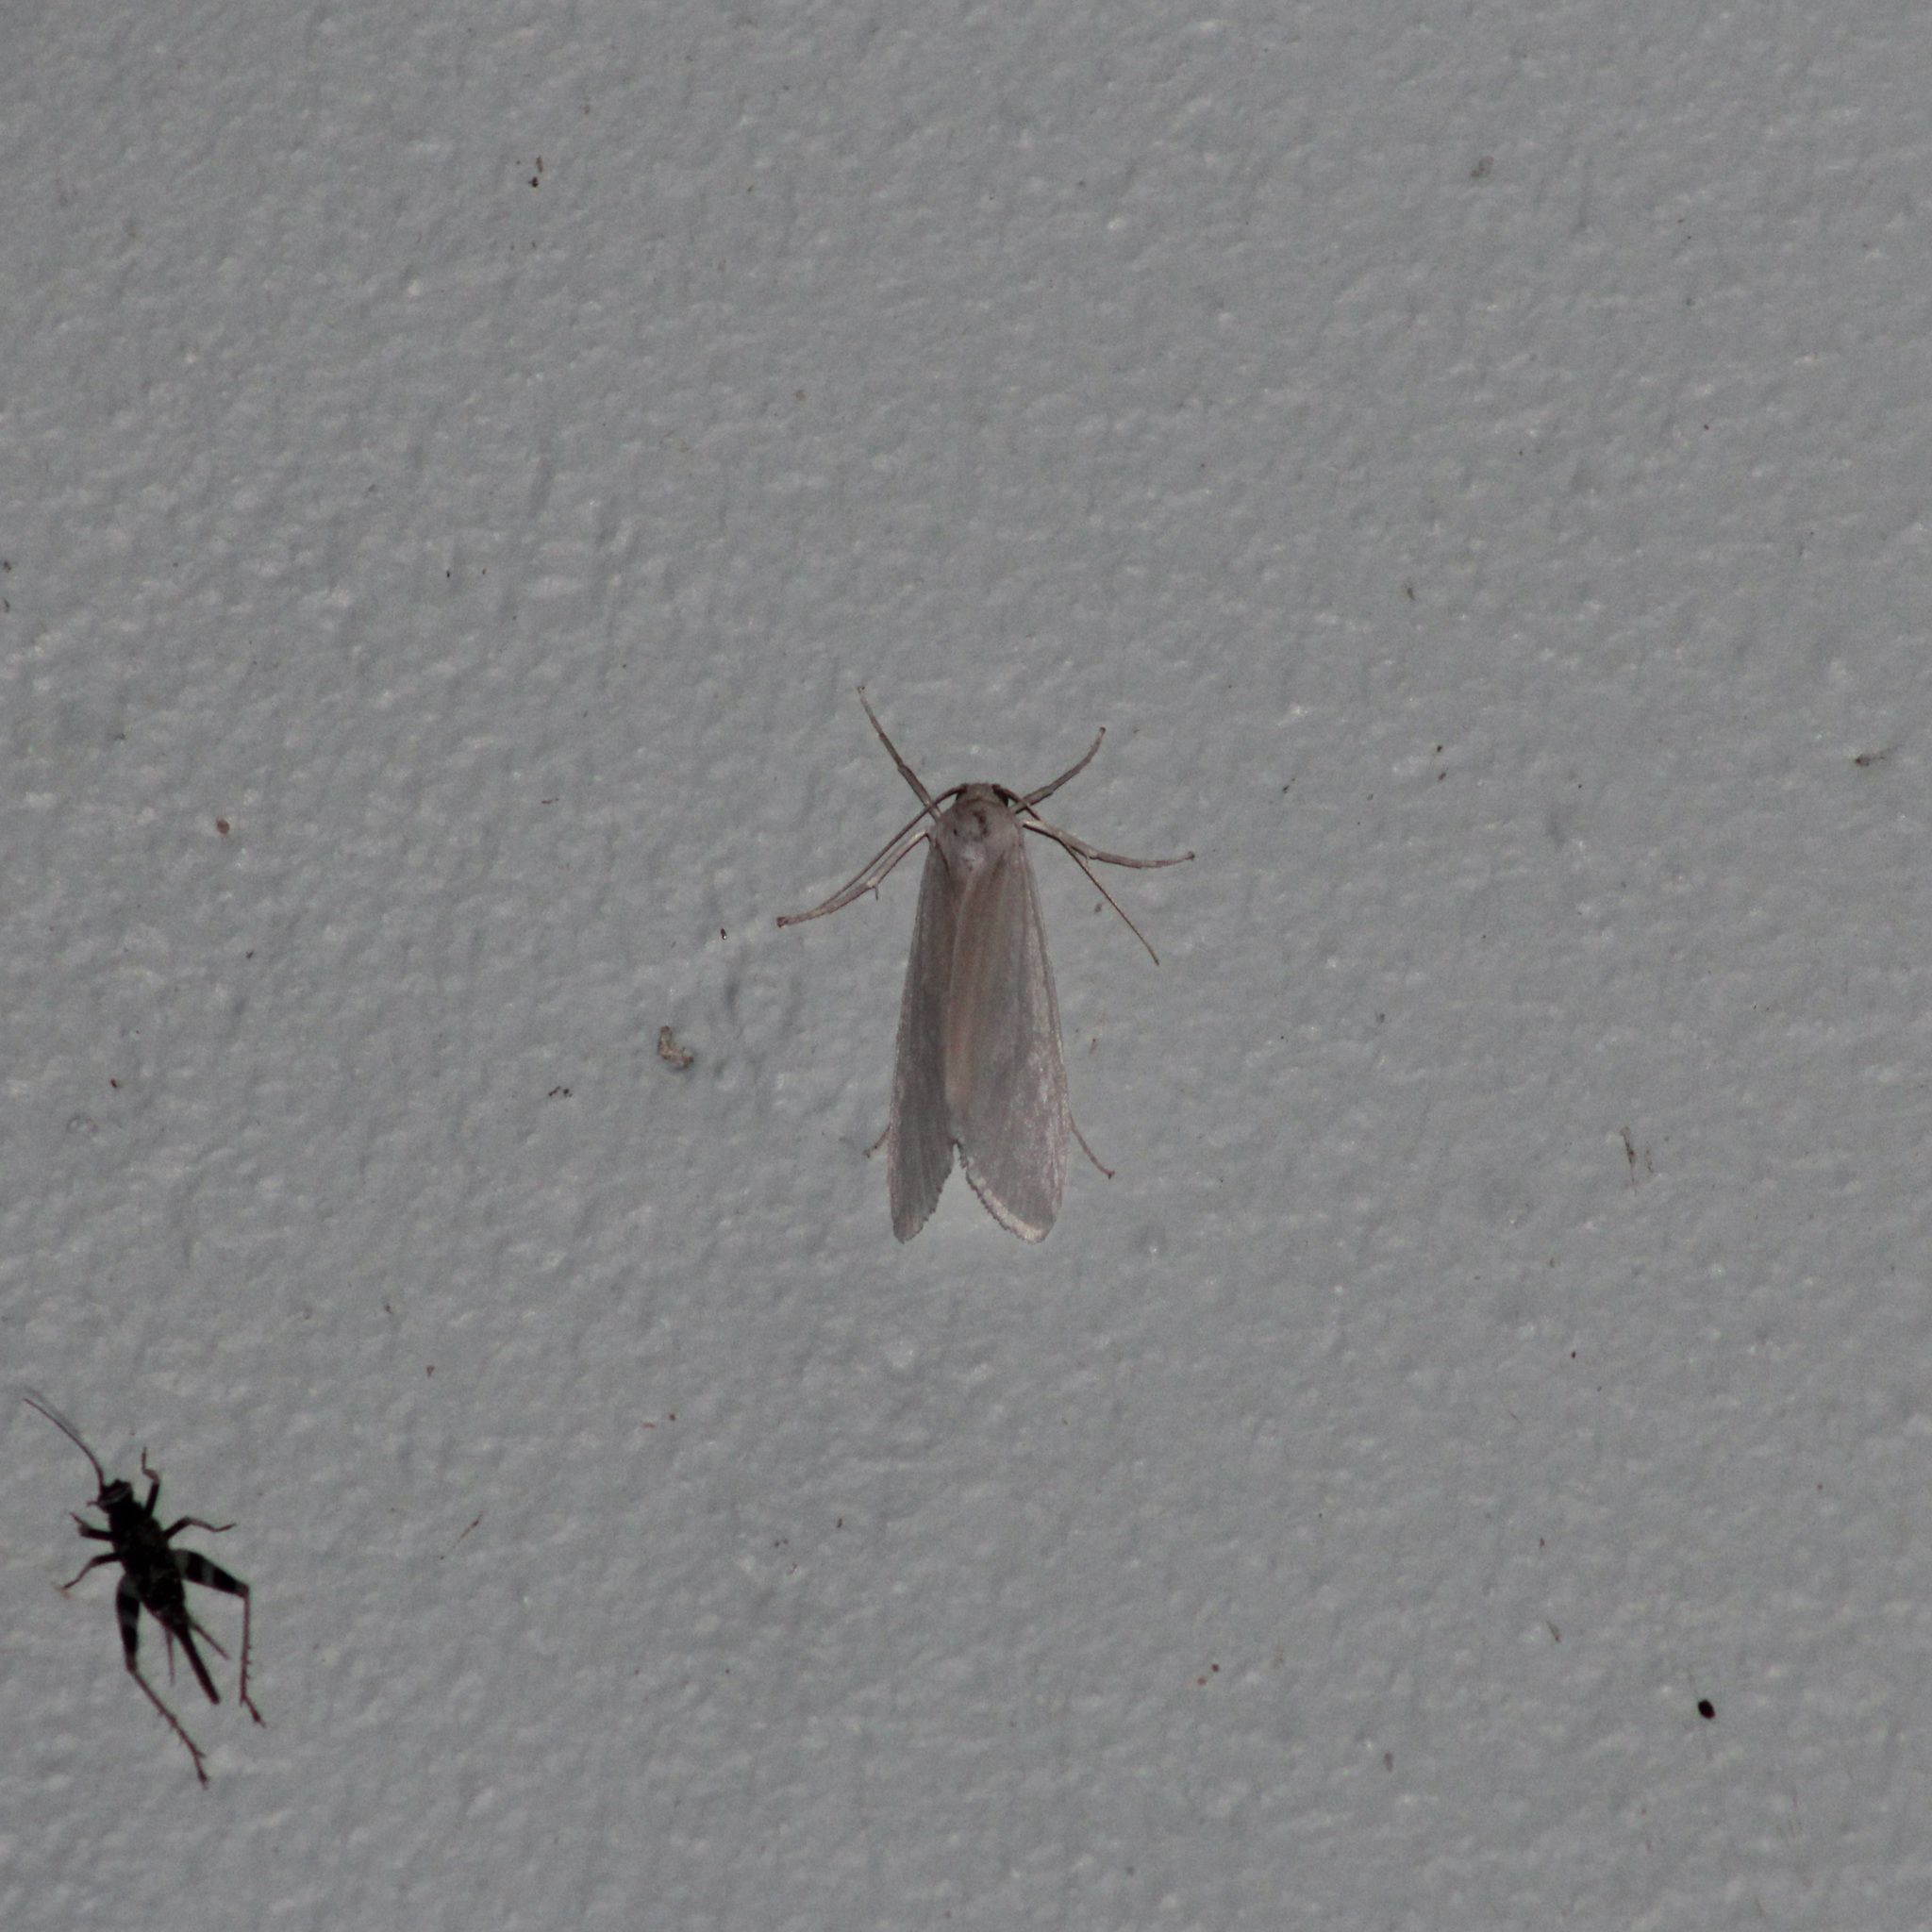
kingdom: Animalia
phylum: Arthropoda
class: Insecta
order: Lepidoptera
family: Crambidae
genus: Rupela
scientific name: Rupela albina
